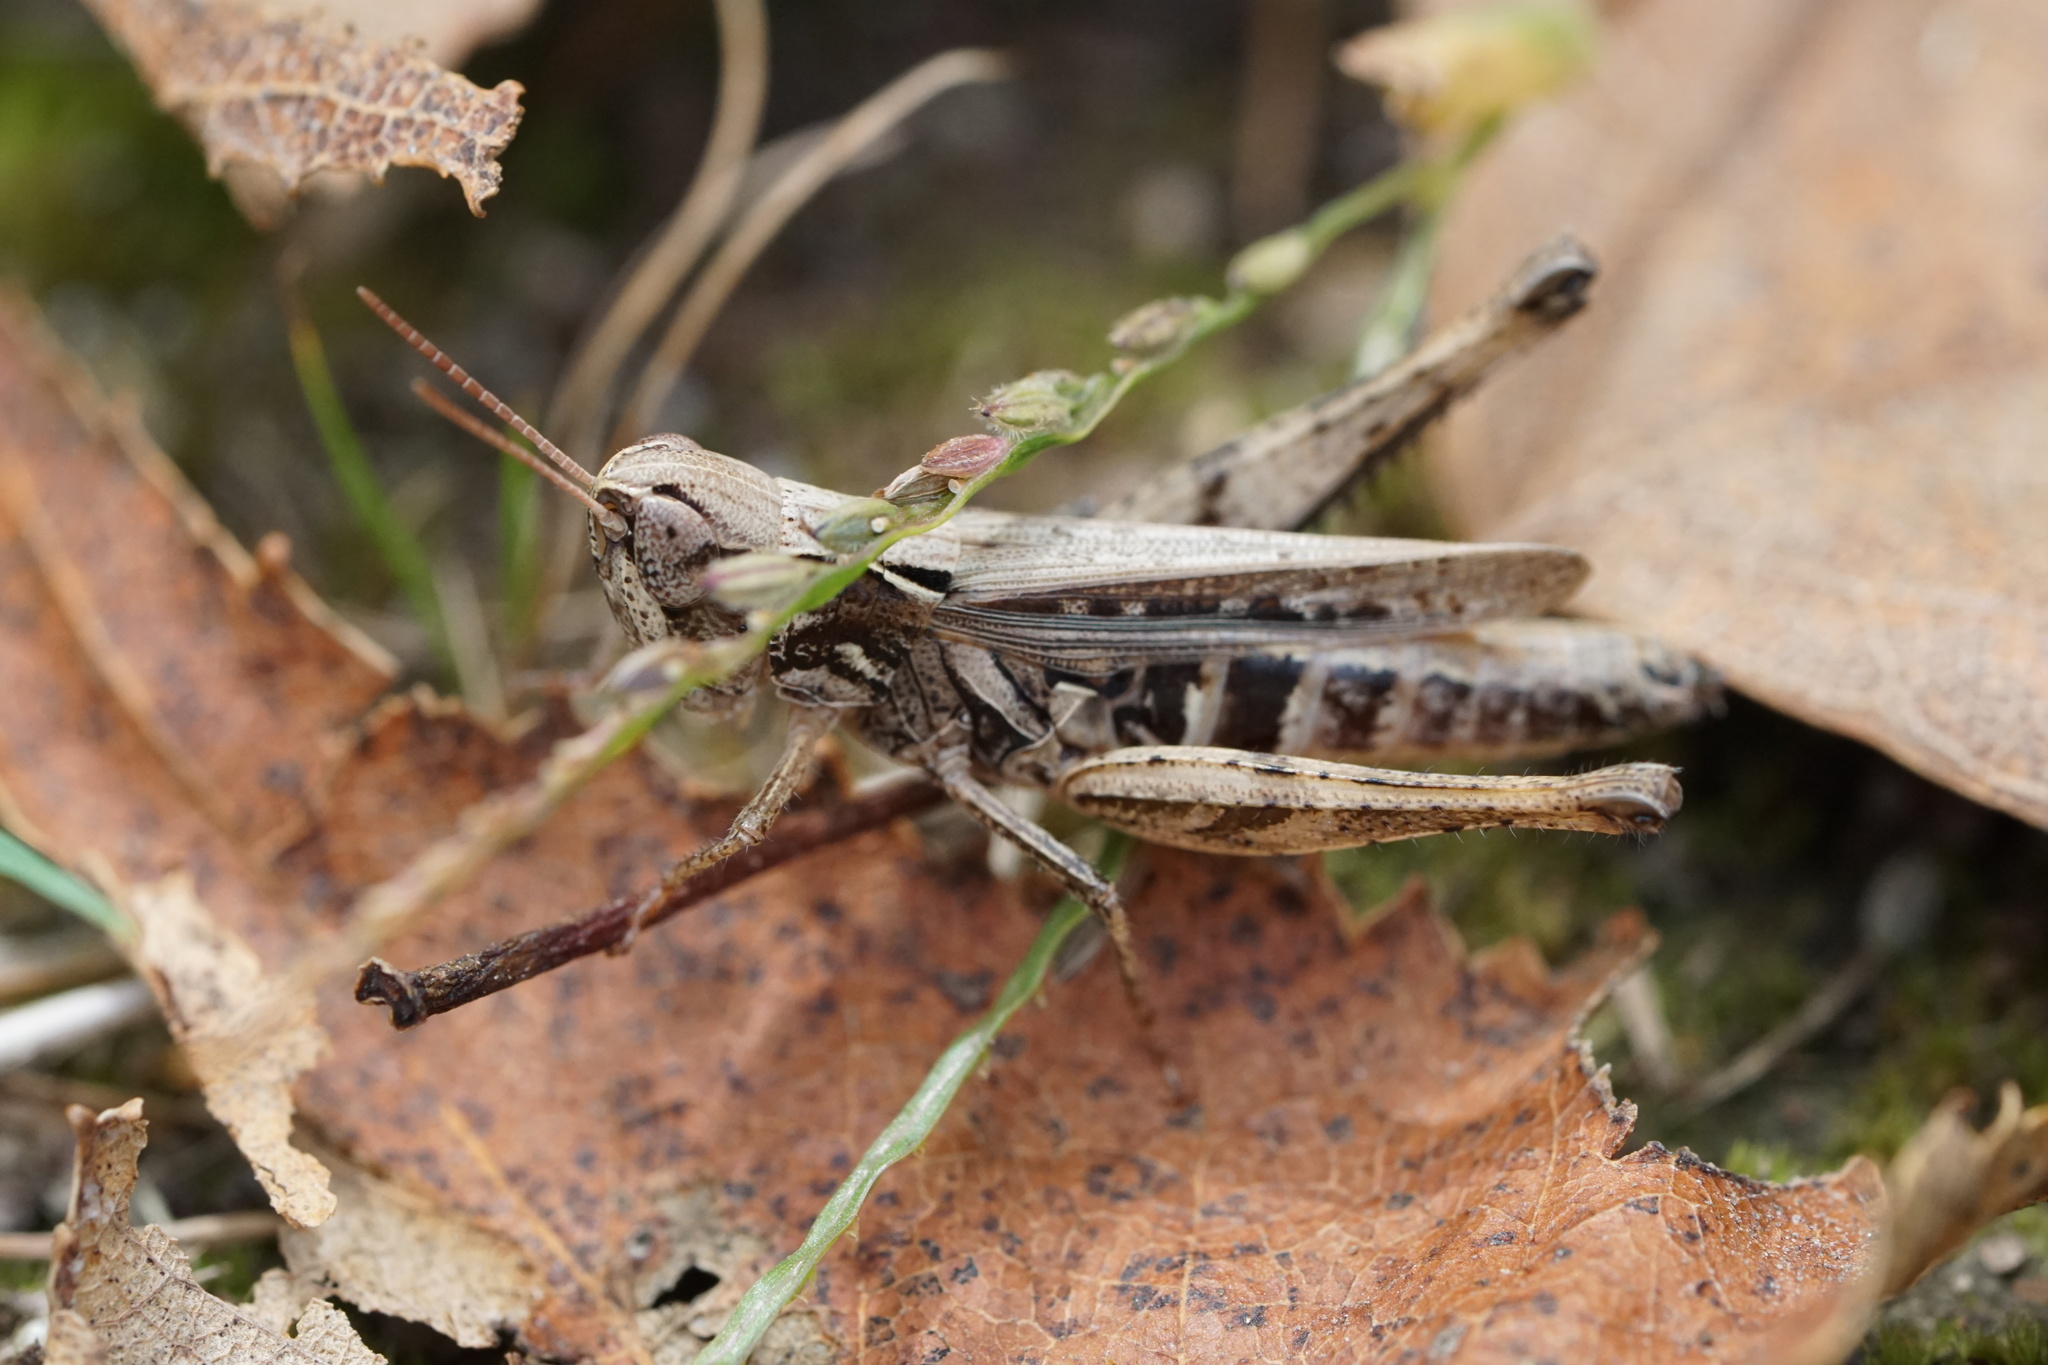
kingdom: Animalia
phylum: Arthropoda
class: Insecta
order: Orthoptera
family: Acrididae
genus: Orphulella
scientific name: Orphulella speciosa
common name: Pasture grasshopper
